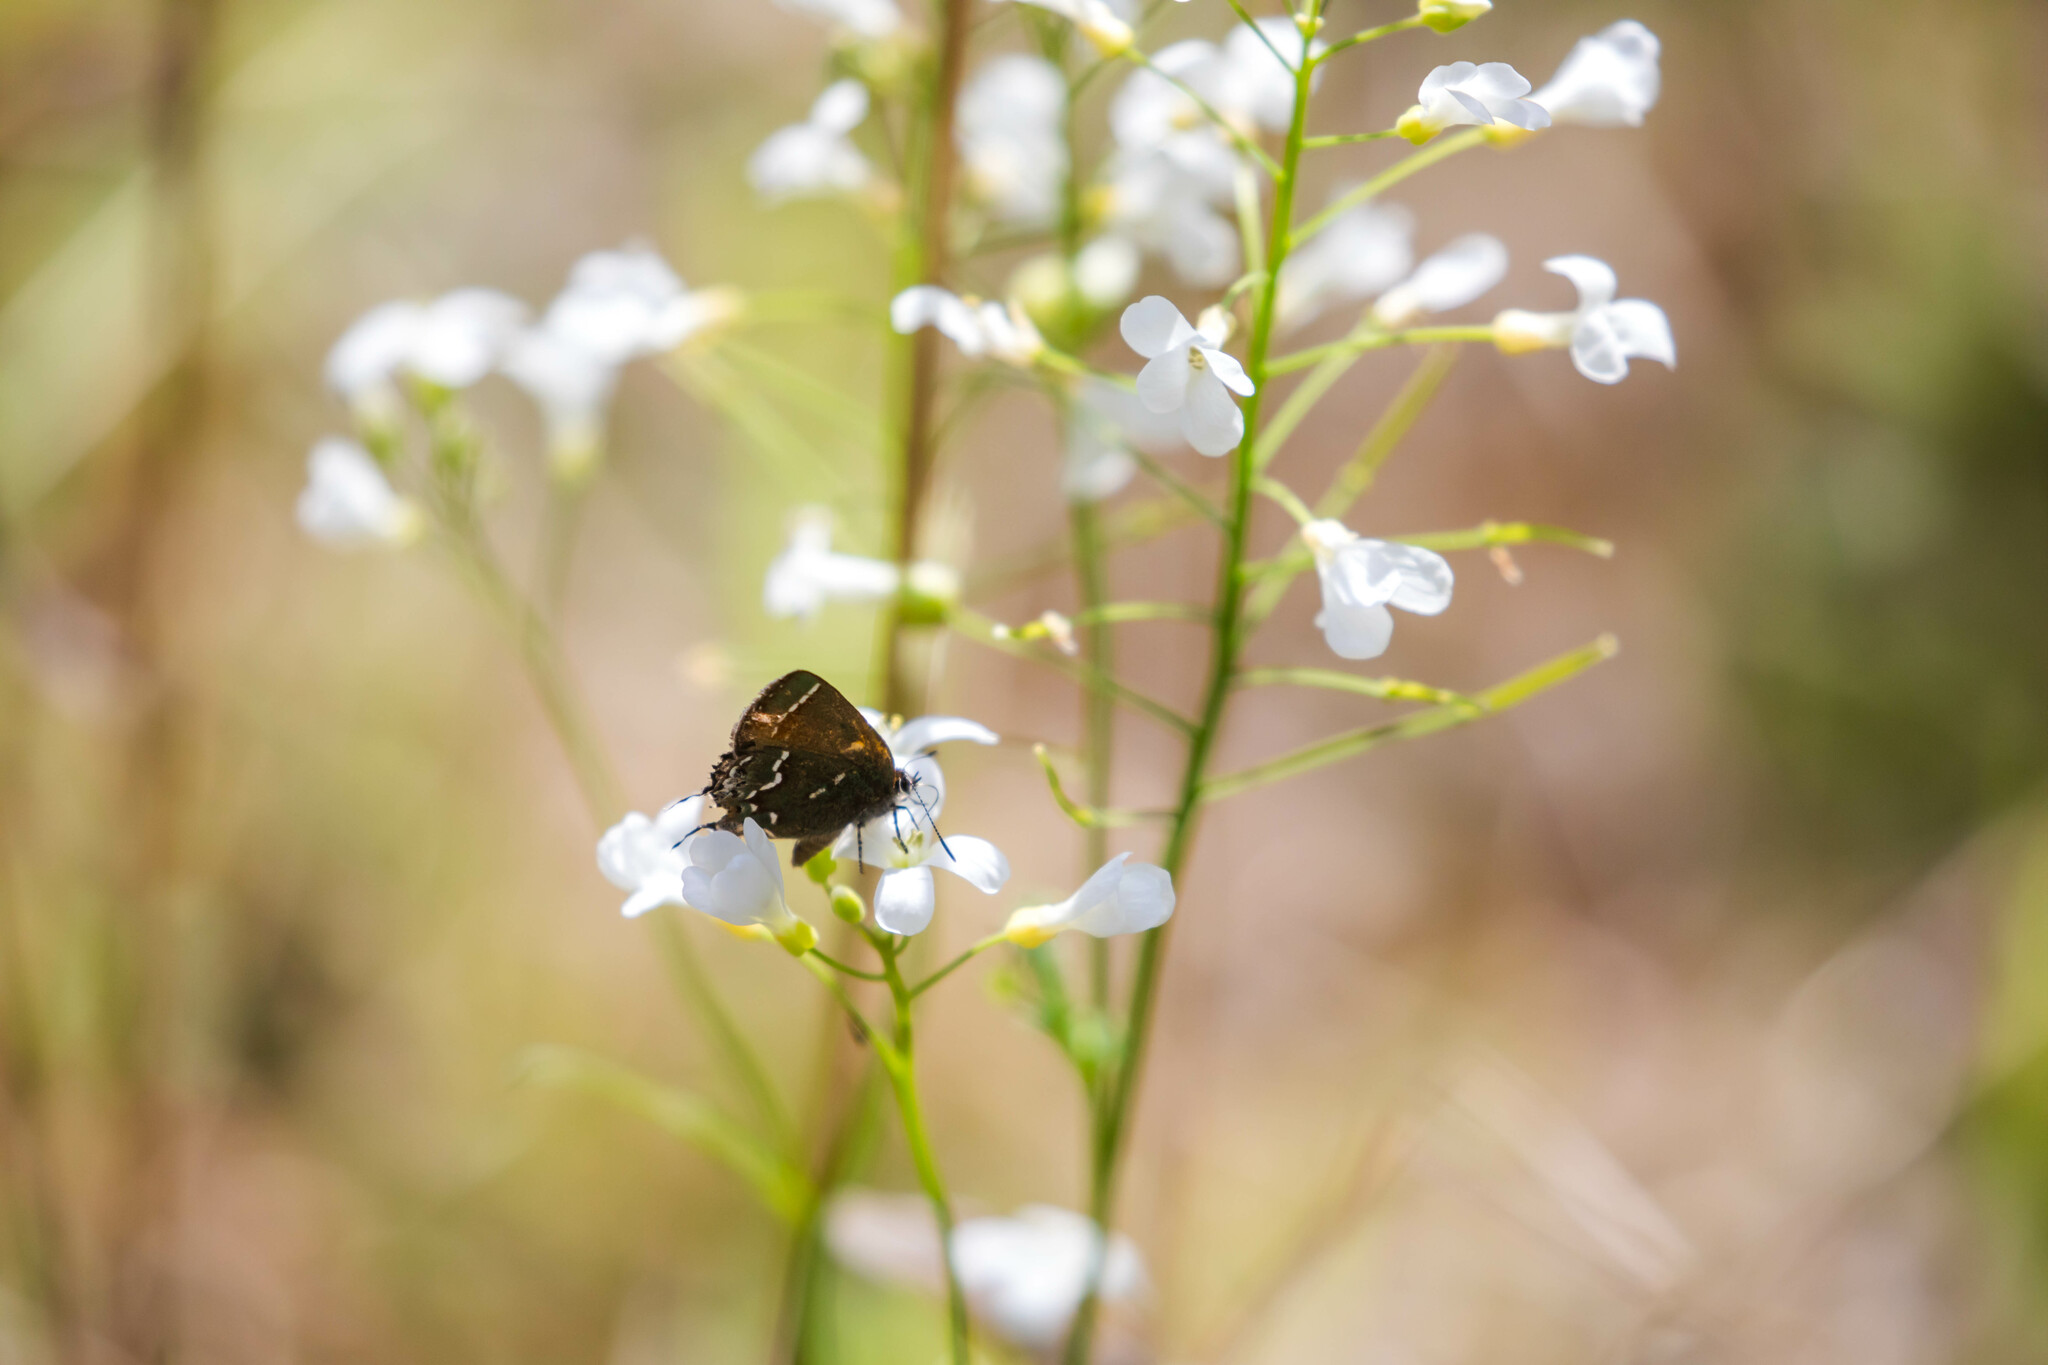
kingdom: Animalia
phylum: Arthropoda
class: Insecta
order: Lepidoptera
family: Lycaenidae
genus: Mitoura
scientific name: Mitoura gryneus
